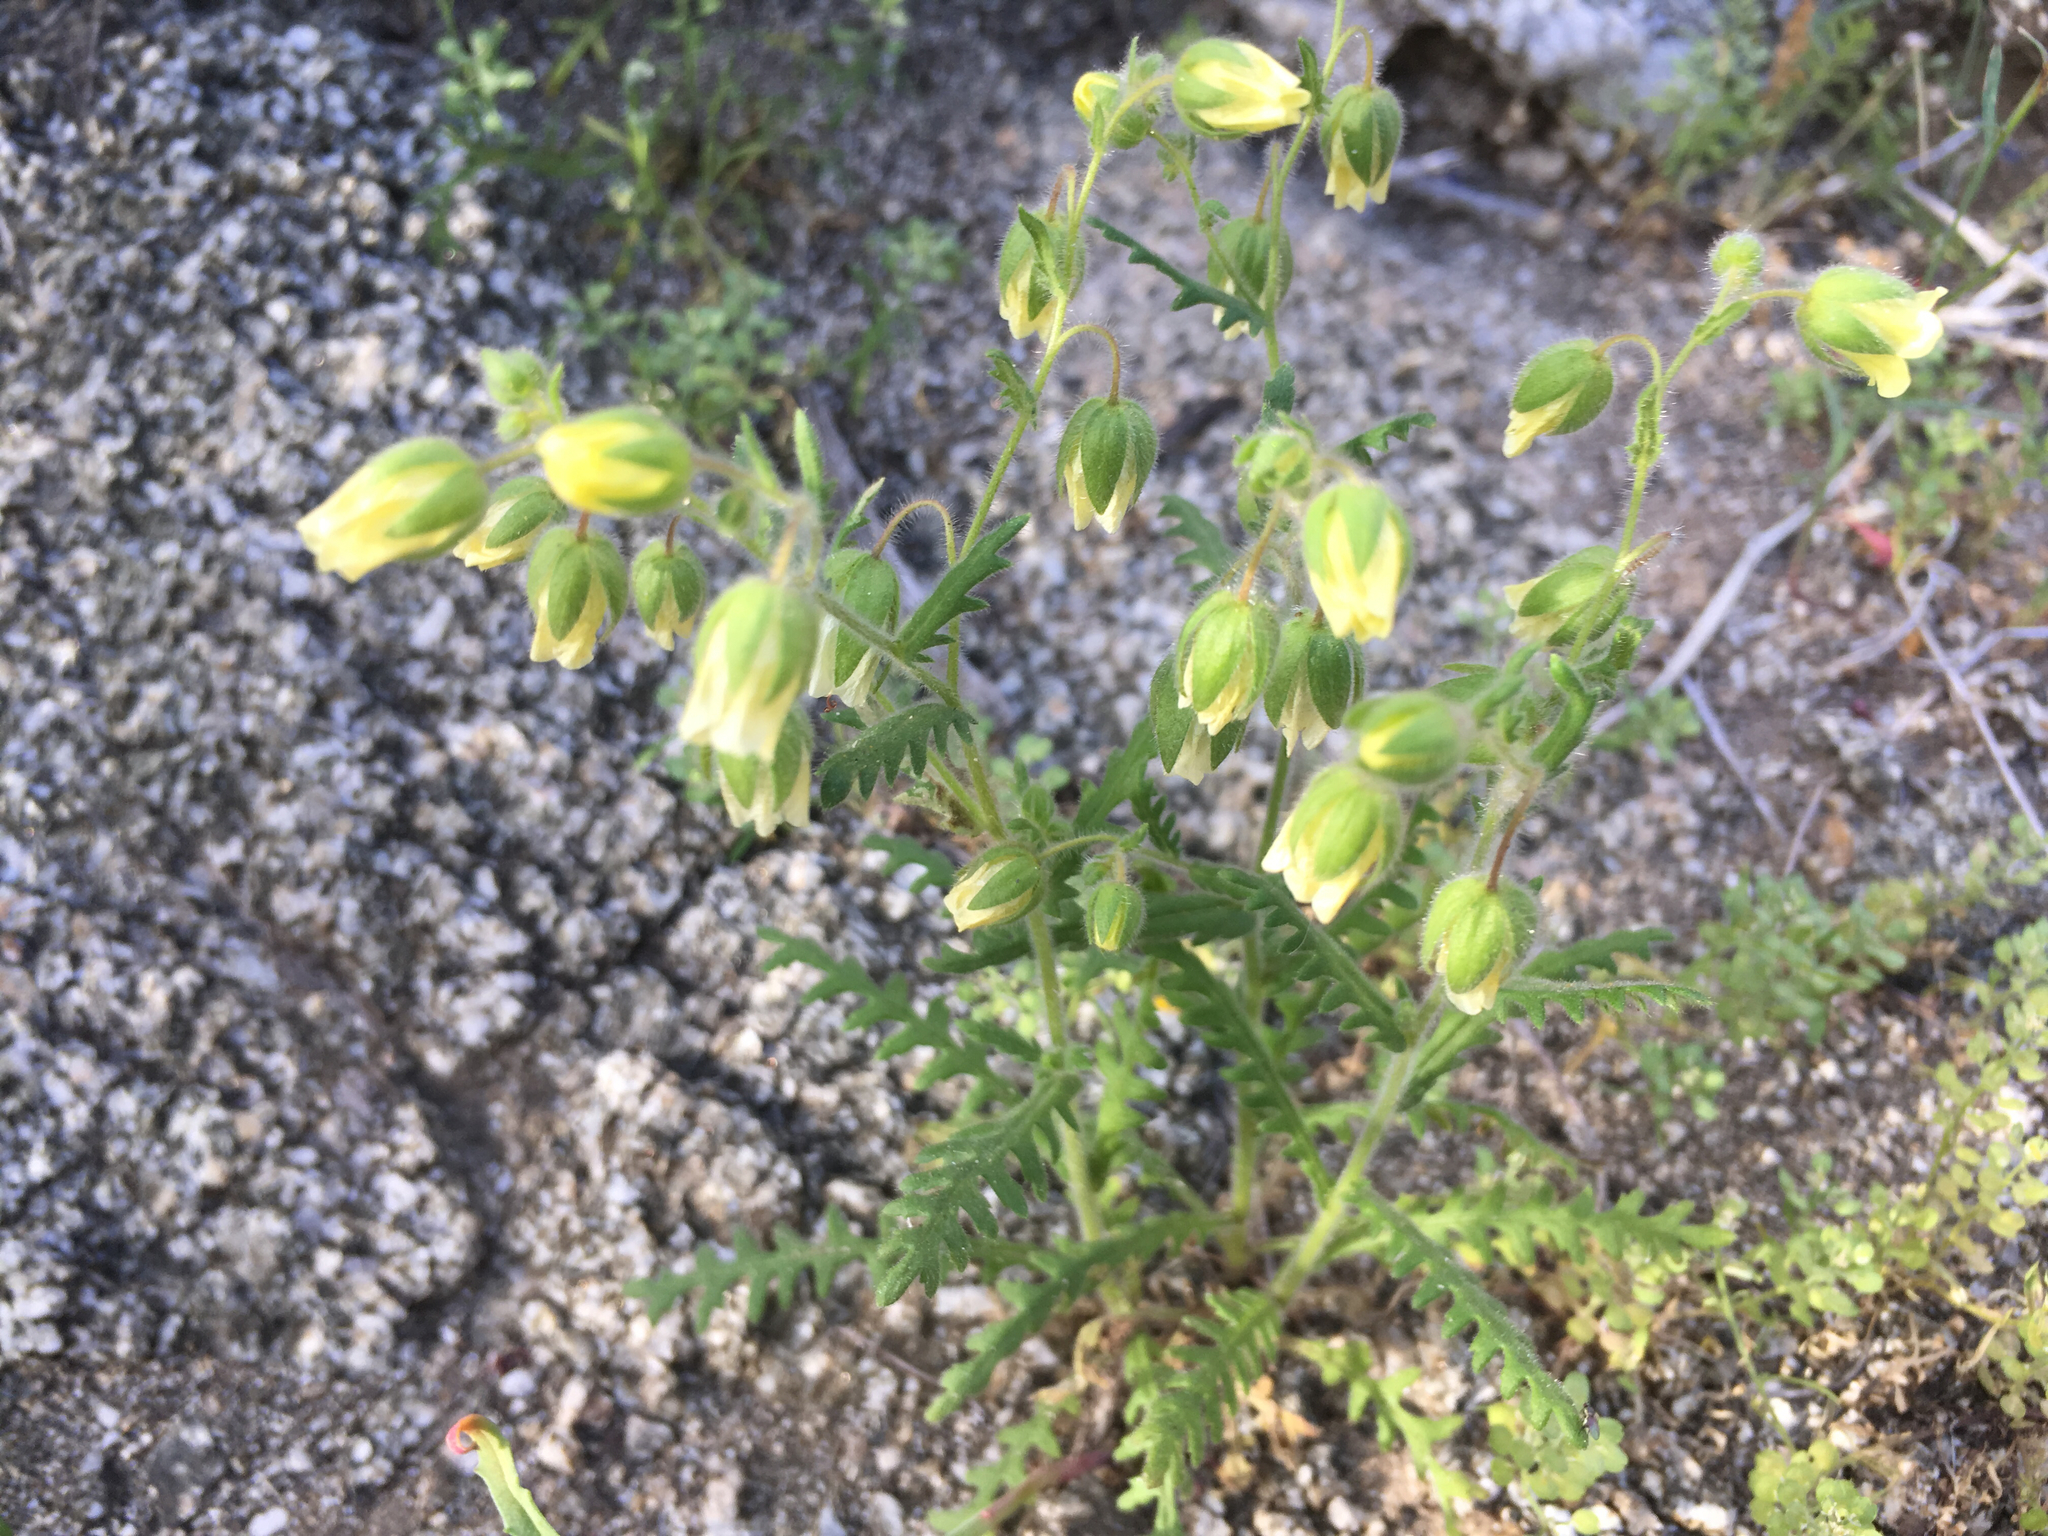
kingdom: Plantae
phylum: Tracheophyta
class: Magnoliopsida
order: Boraginales
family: Hydrophyllaceae
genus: Emmenanthe
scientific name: Emmenanthe penduliflora
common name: Whispering-bells
